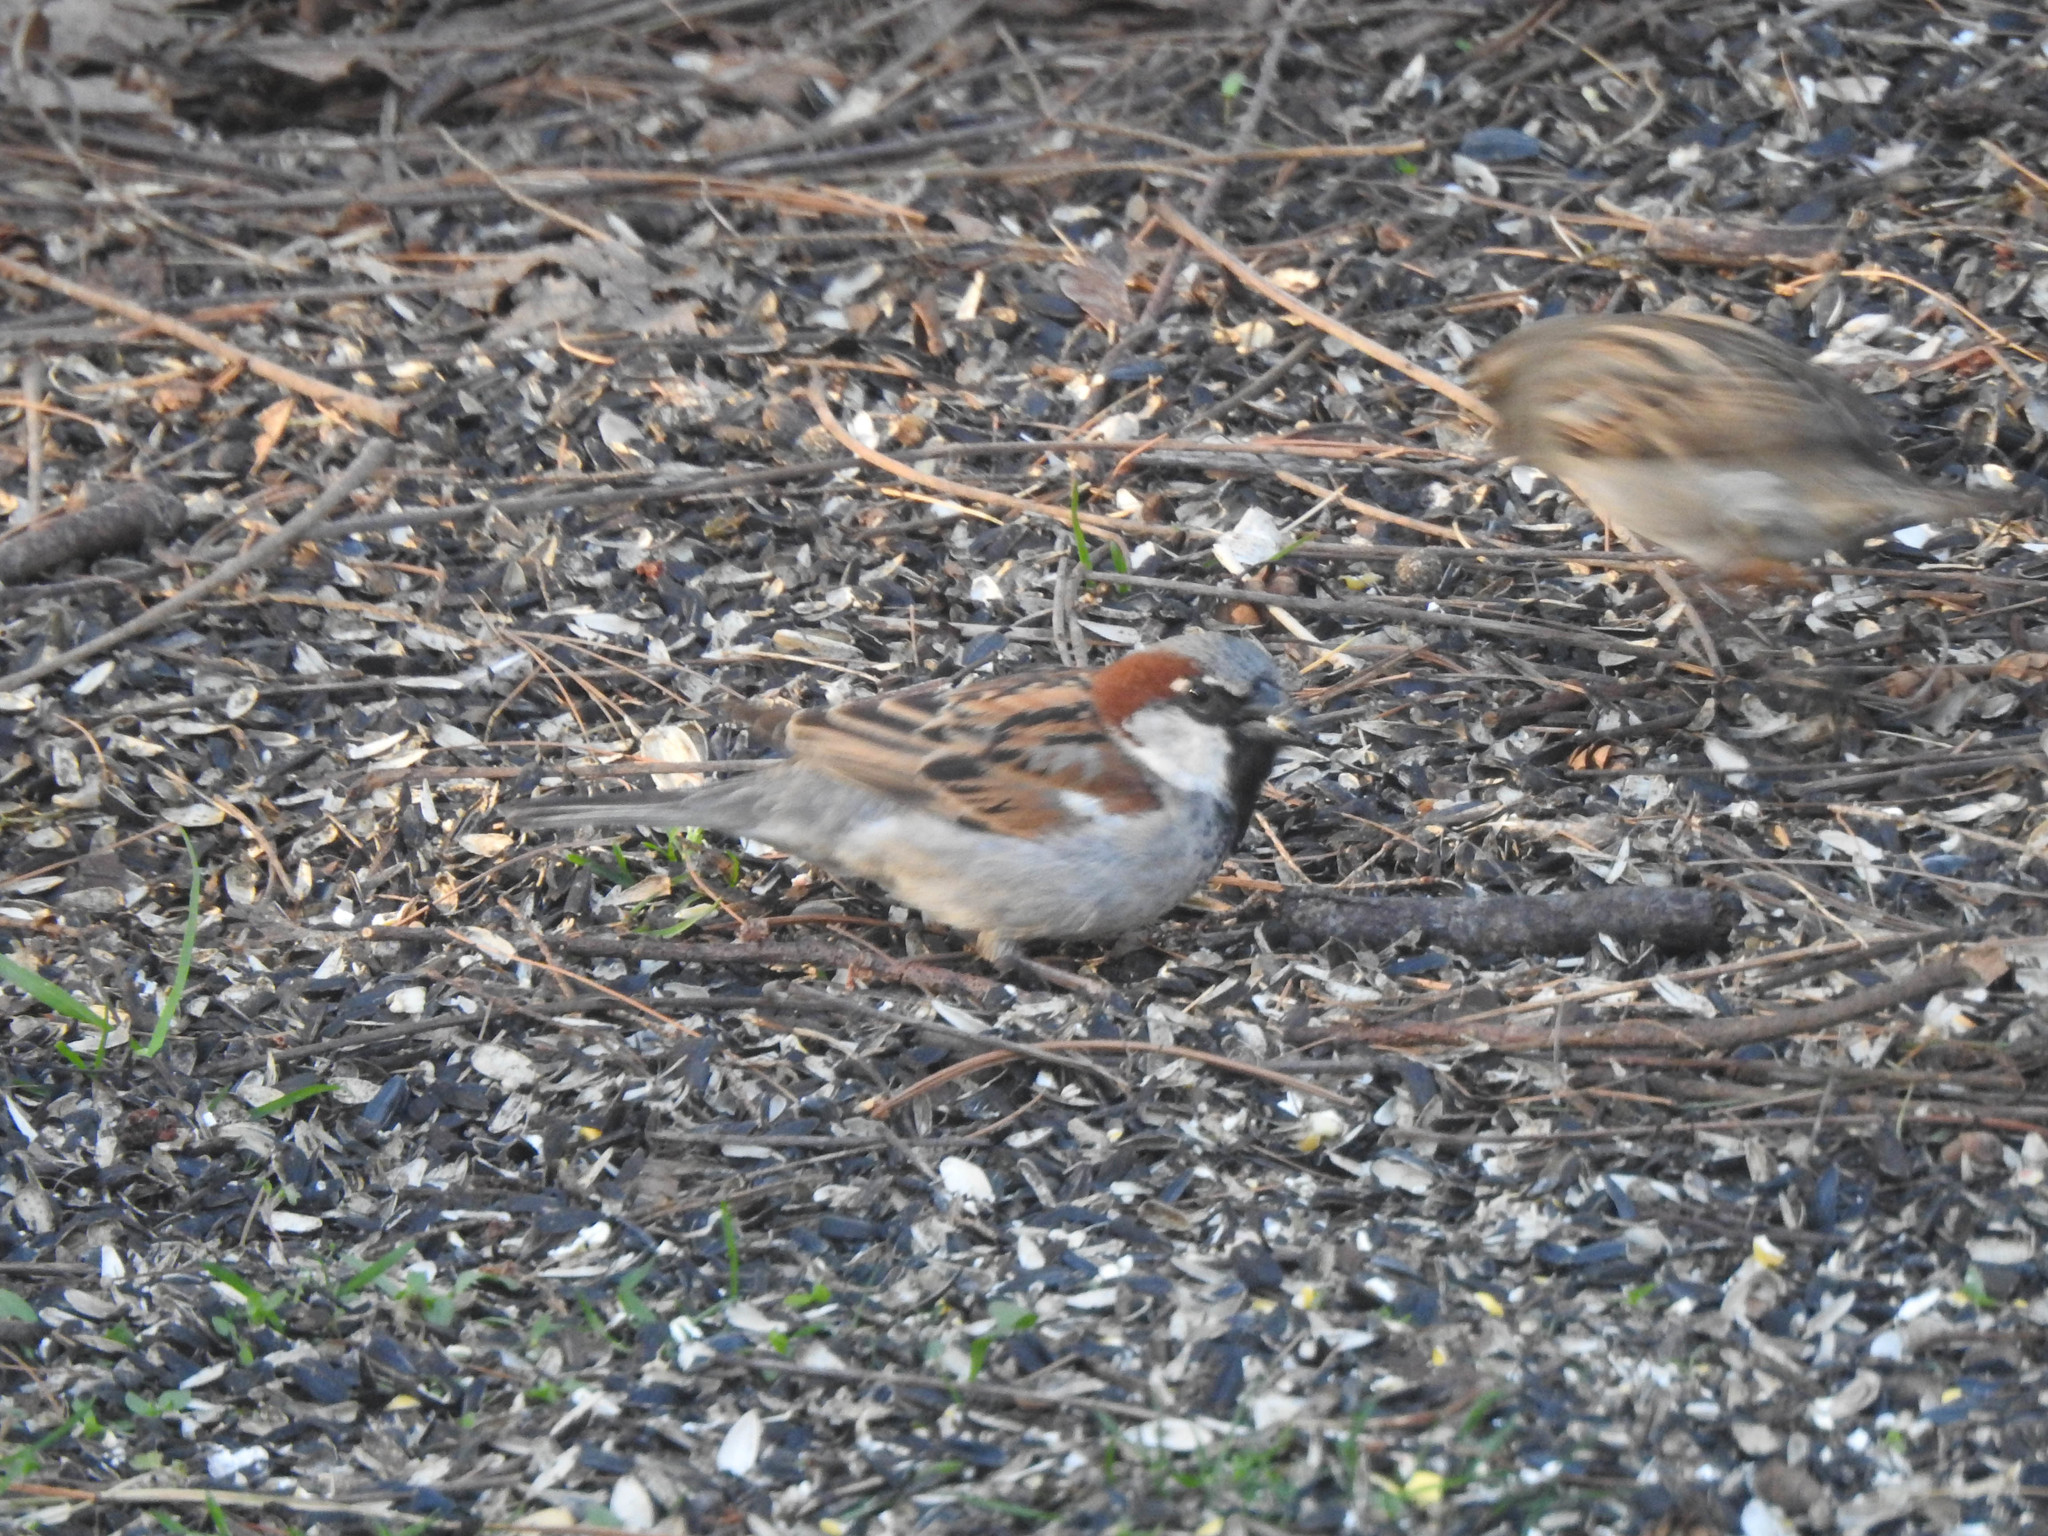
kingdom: Animalia
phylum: Chordata
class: Aves
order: Passeriformes
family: Passeridae
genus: Passer
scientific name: Passer domesticus
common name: House sparrow
